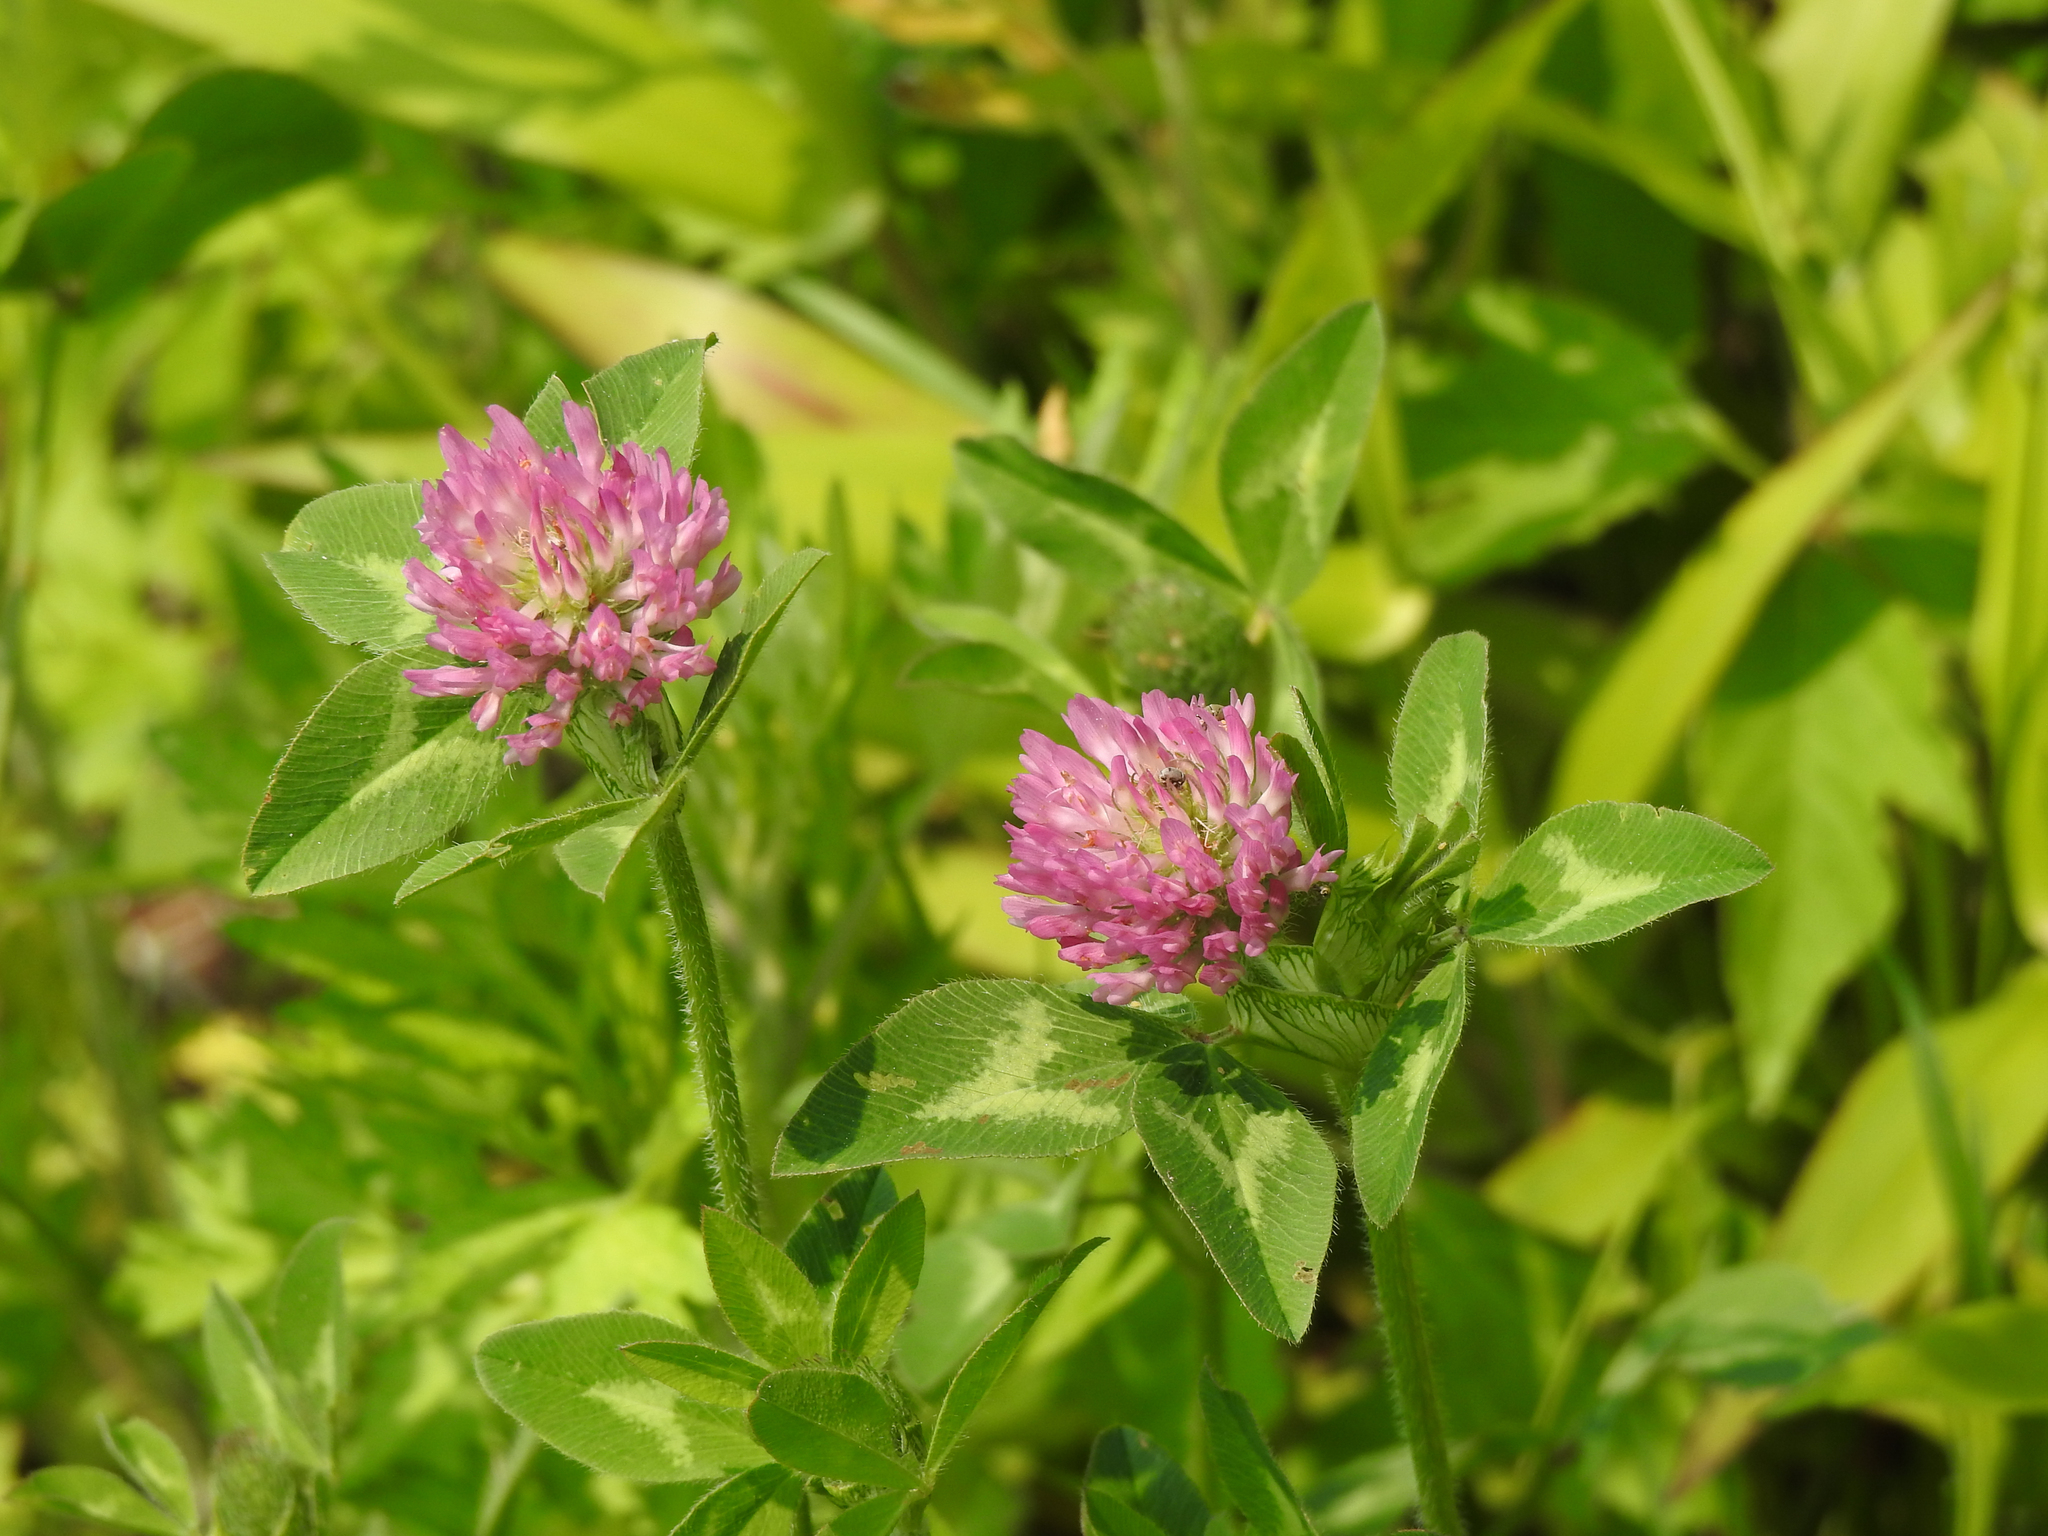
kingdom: Plantae
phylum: Tracheophyta
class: Magnoliopsida
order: Fabales
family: Fabaceae
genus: Trifolium
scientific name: Trifolium pratense
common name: Red clover
